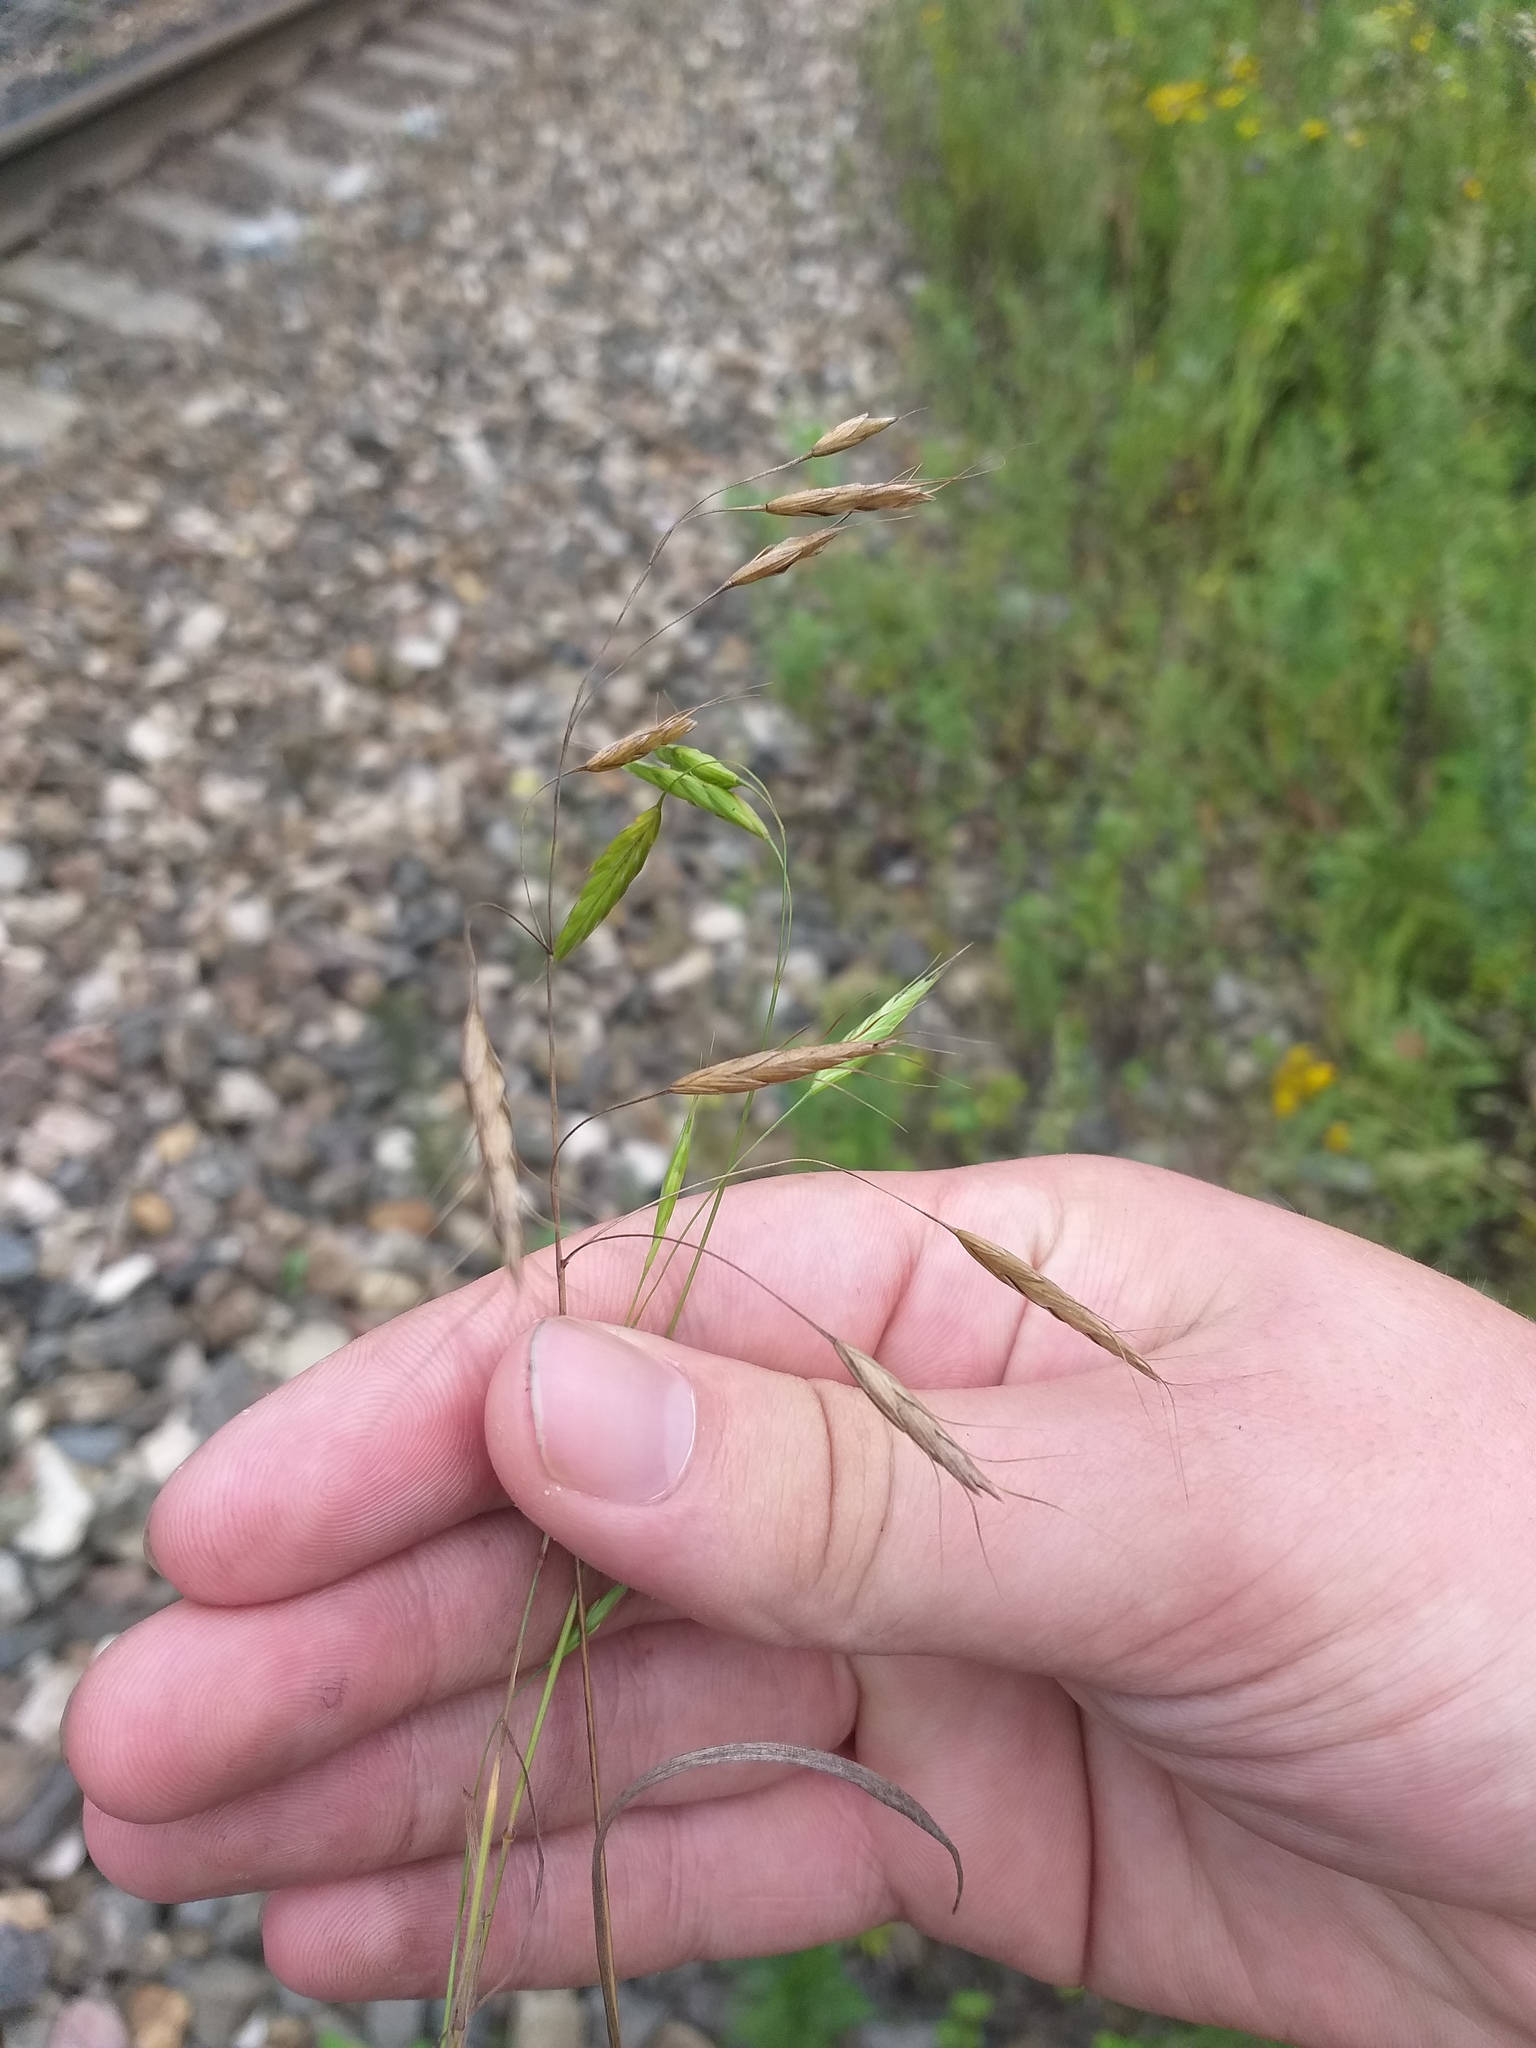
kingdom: Plantae
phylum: Tracheophyta
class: Liliopsida
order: Poales
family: Poaceae
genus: Bromus
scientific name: Bromus japonicus
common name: Japanese brome
